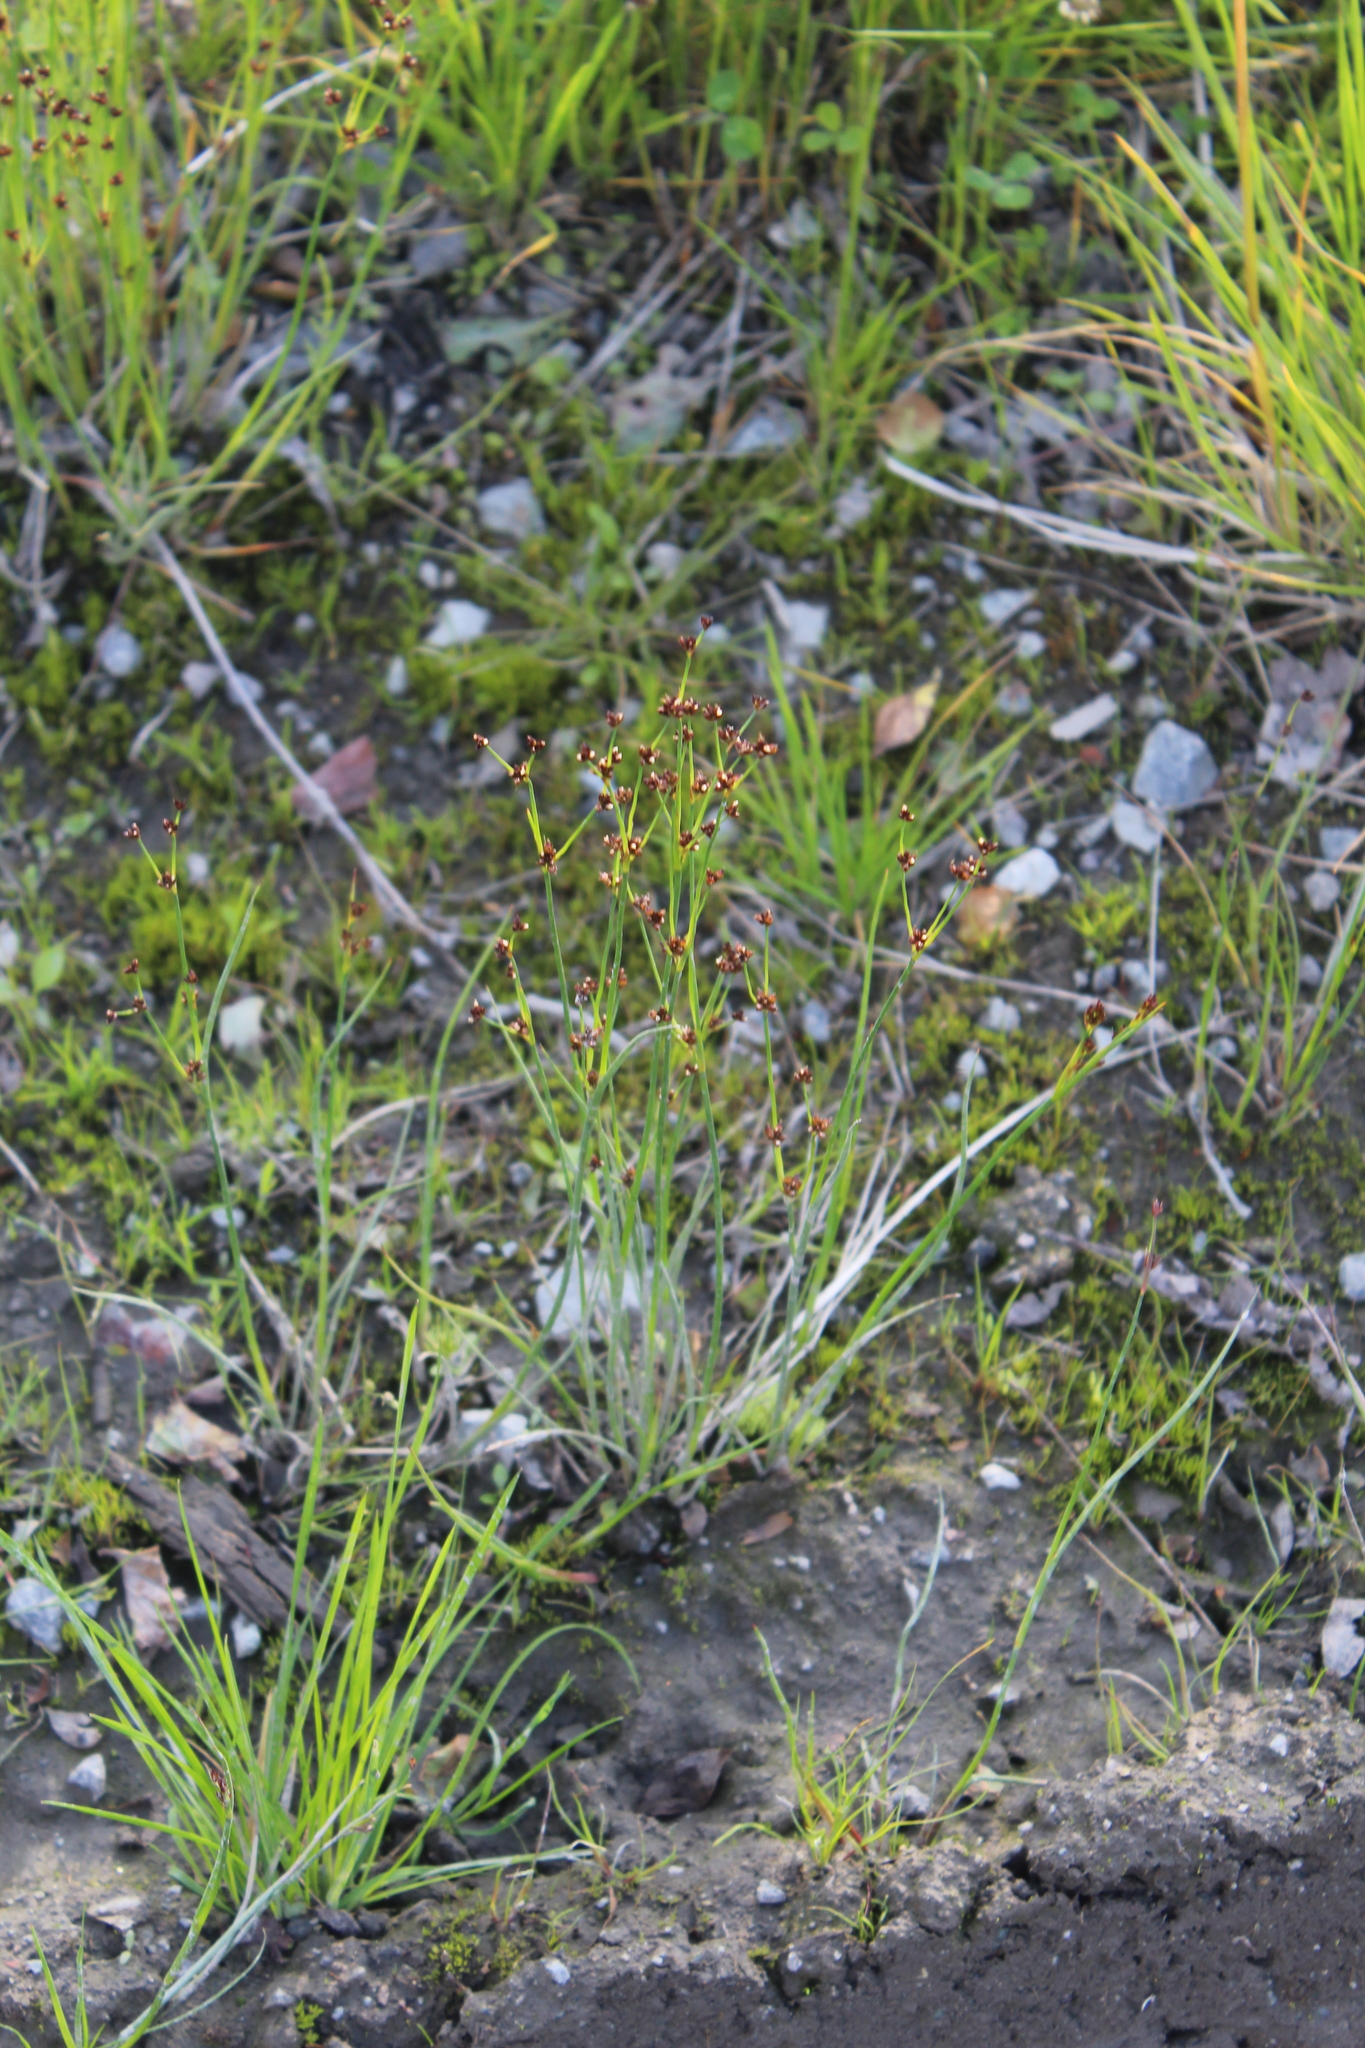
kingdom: Plantae
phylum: Tracheophyta
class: Liliopsida
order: Poales
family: Juncaceae
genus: Juncus
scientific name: Juncus alpinoarticulatus
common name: Alpine rush
